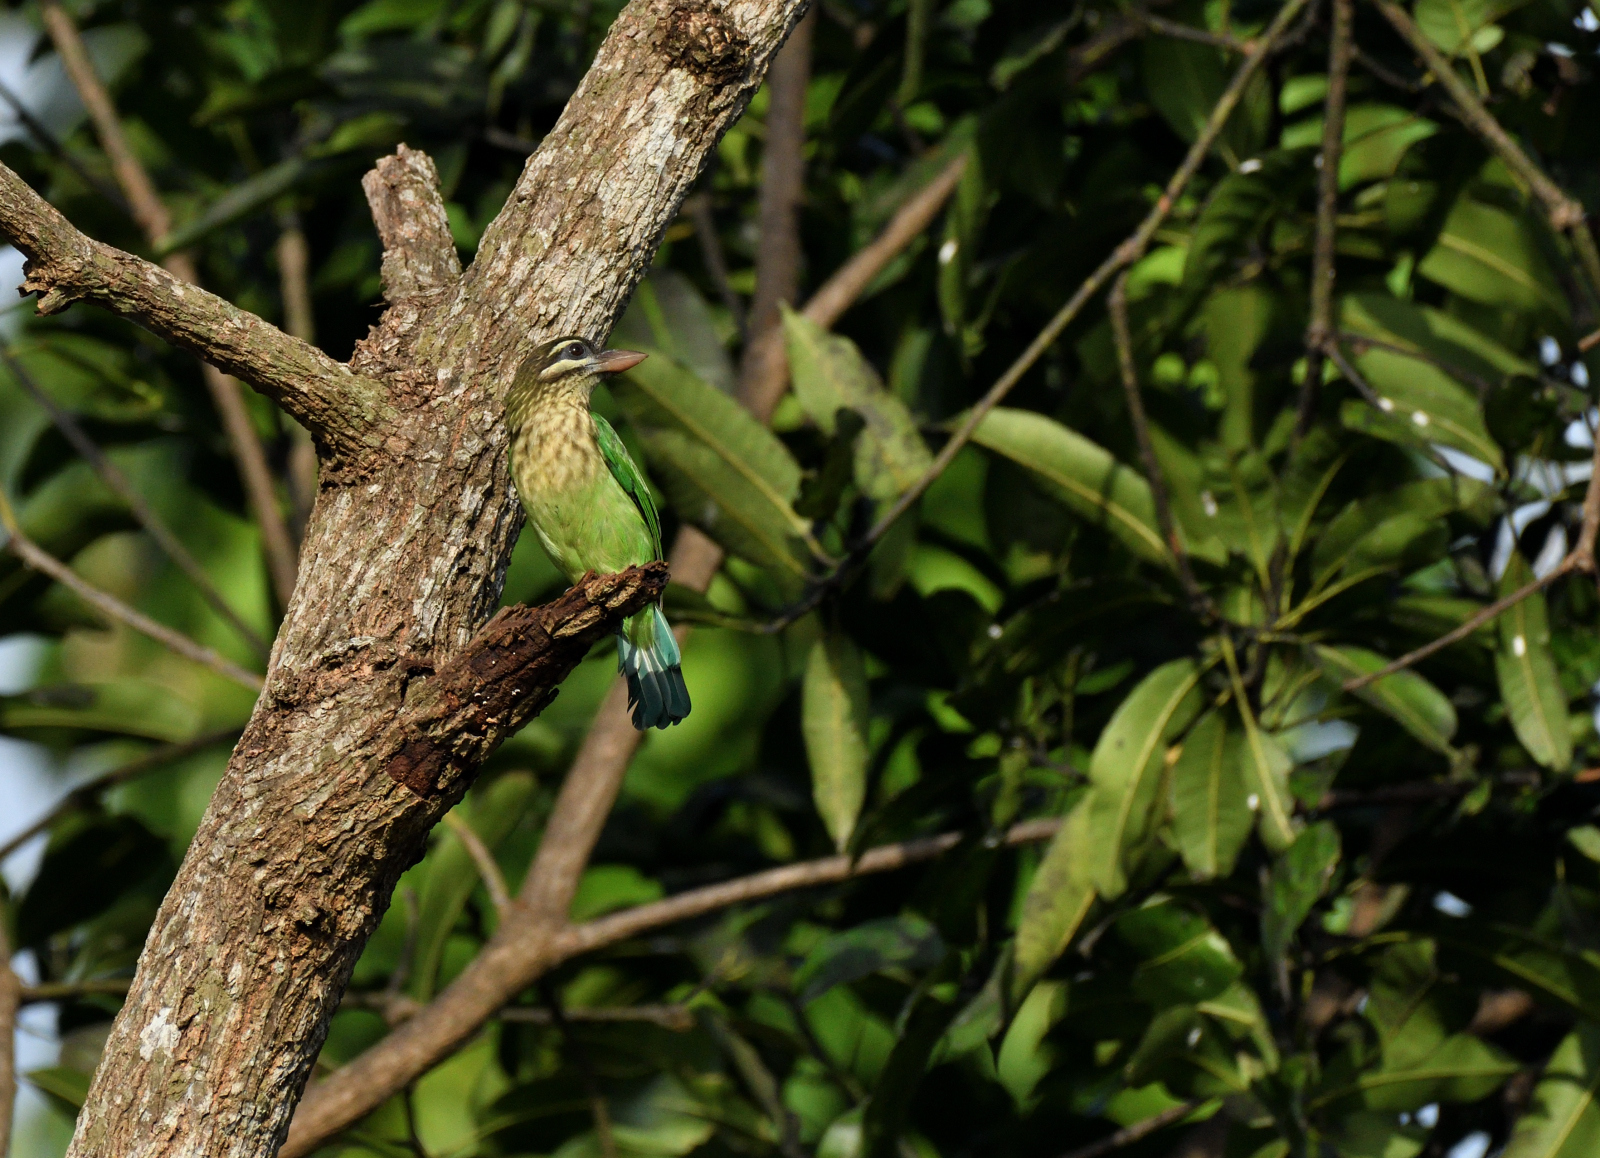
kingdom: Animalia
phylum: Chordata
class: Aves
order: Piciformes
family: Megalaimidae
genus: Psilopogon
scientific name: Psilopogon viridis
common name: White-cheeked barbet
